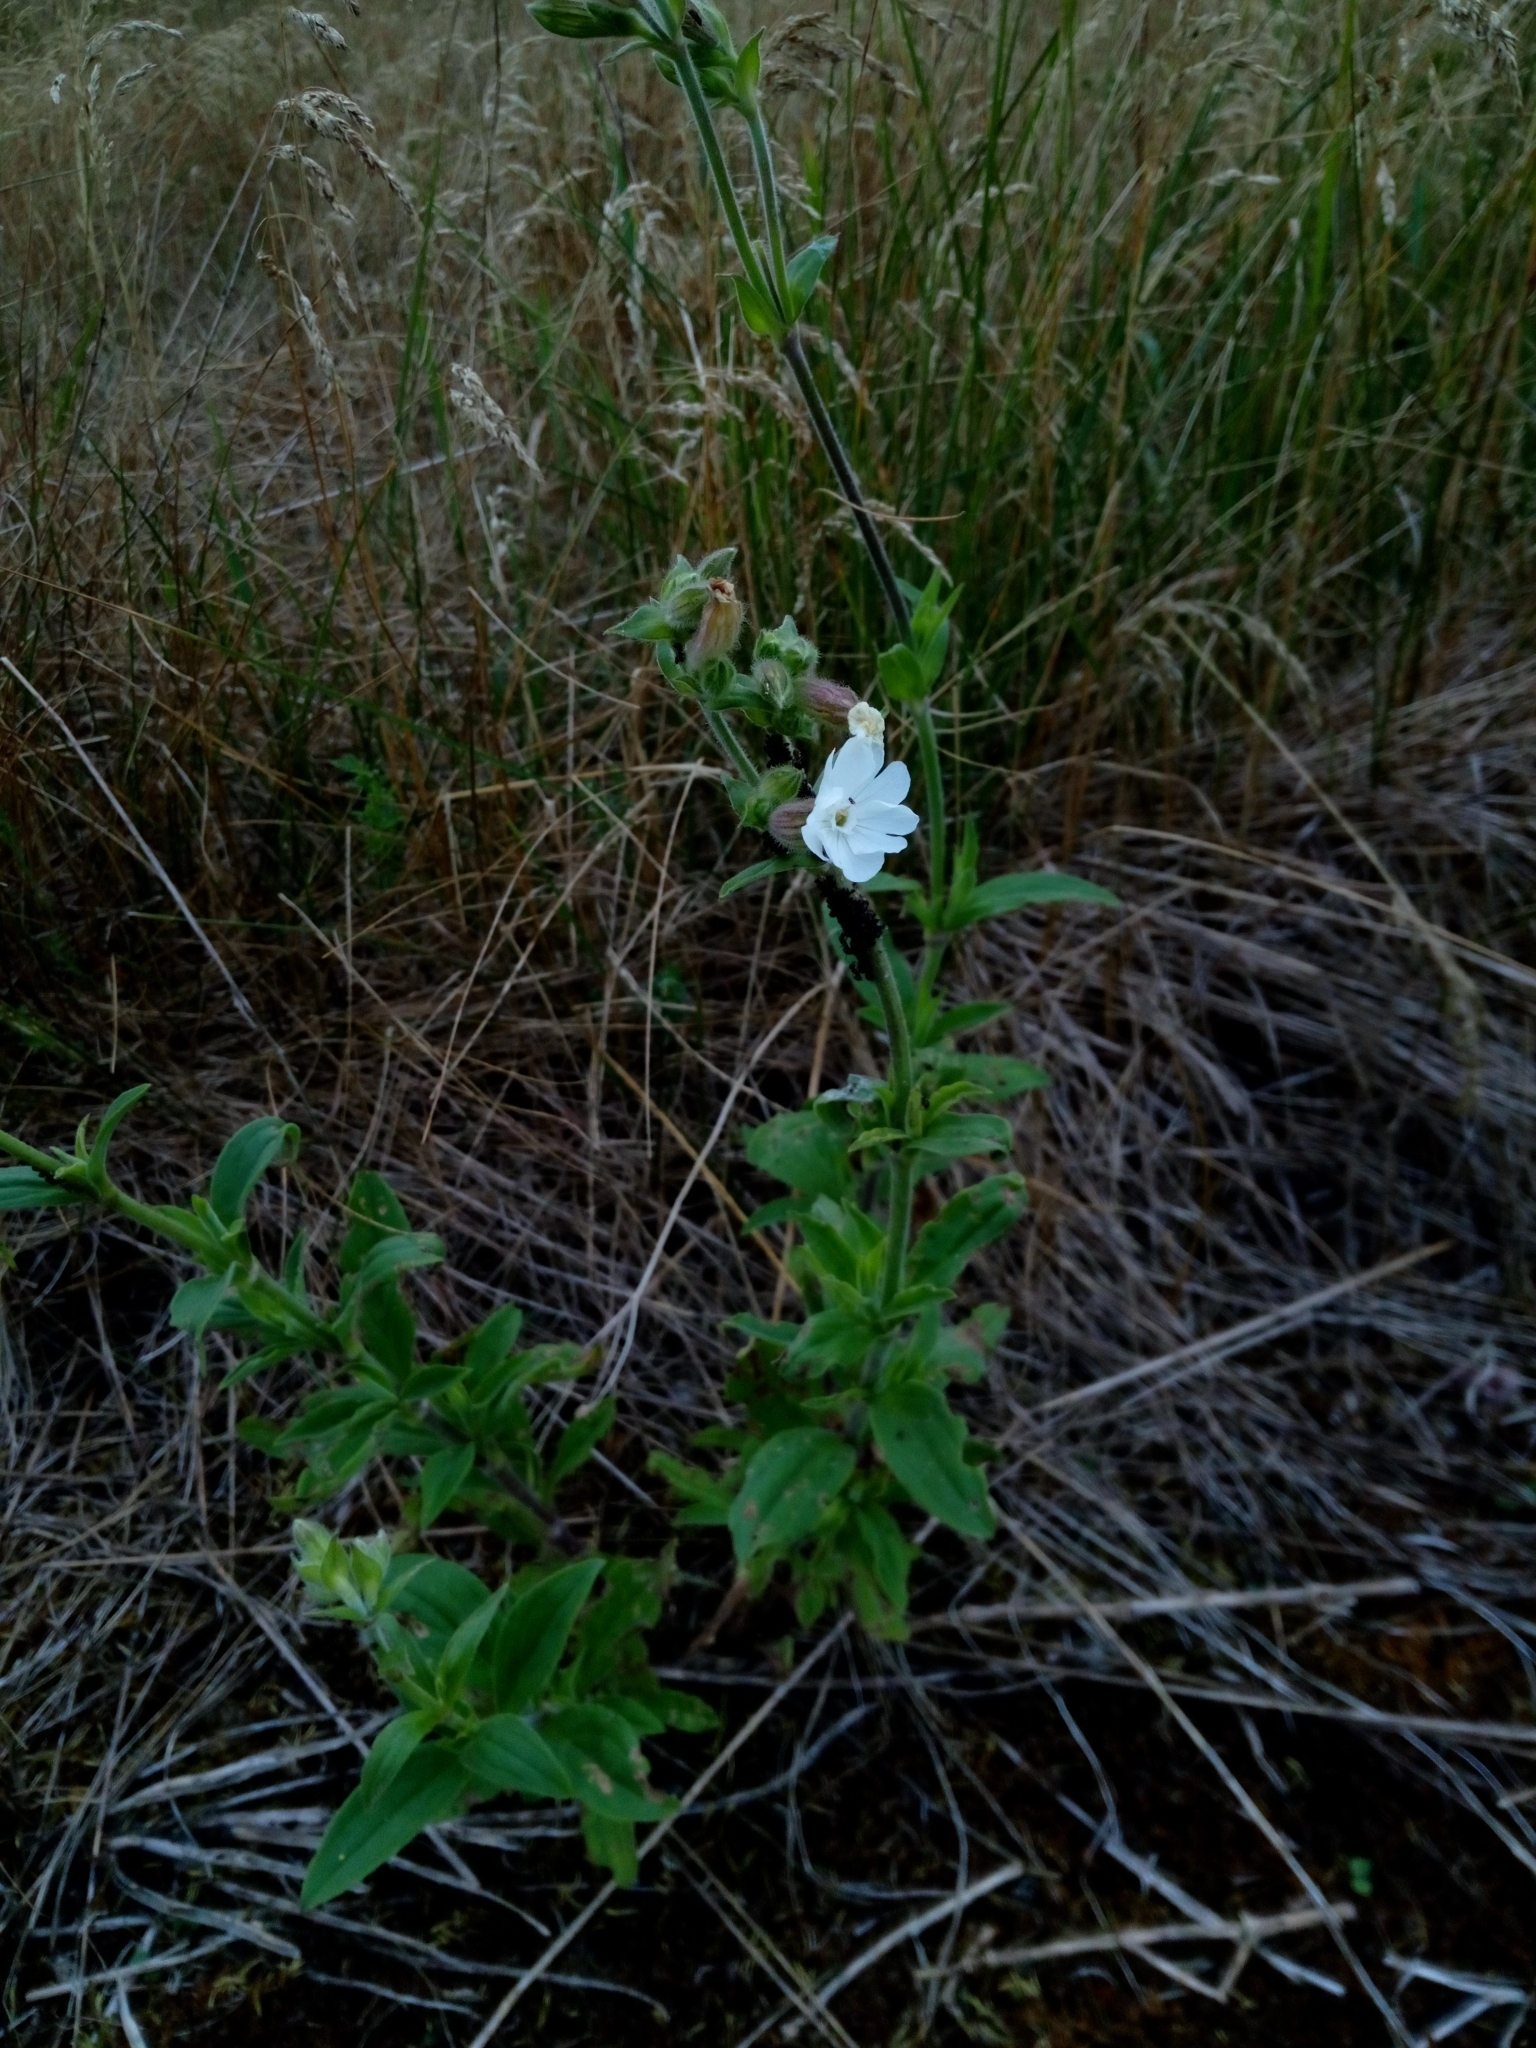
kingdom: Plantae
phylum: Tracheophyta
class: Magnoliopsida
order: Caryophyllales
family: Caryophyllaceae
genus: Silene
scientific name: Silene latifolia
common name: White campion
